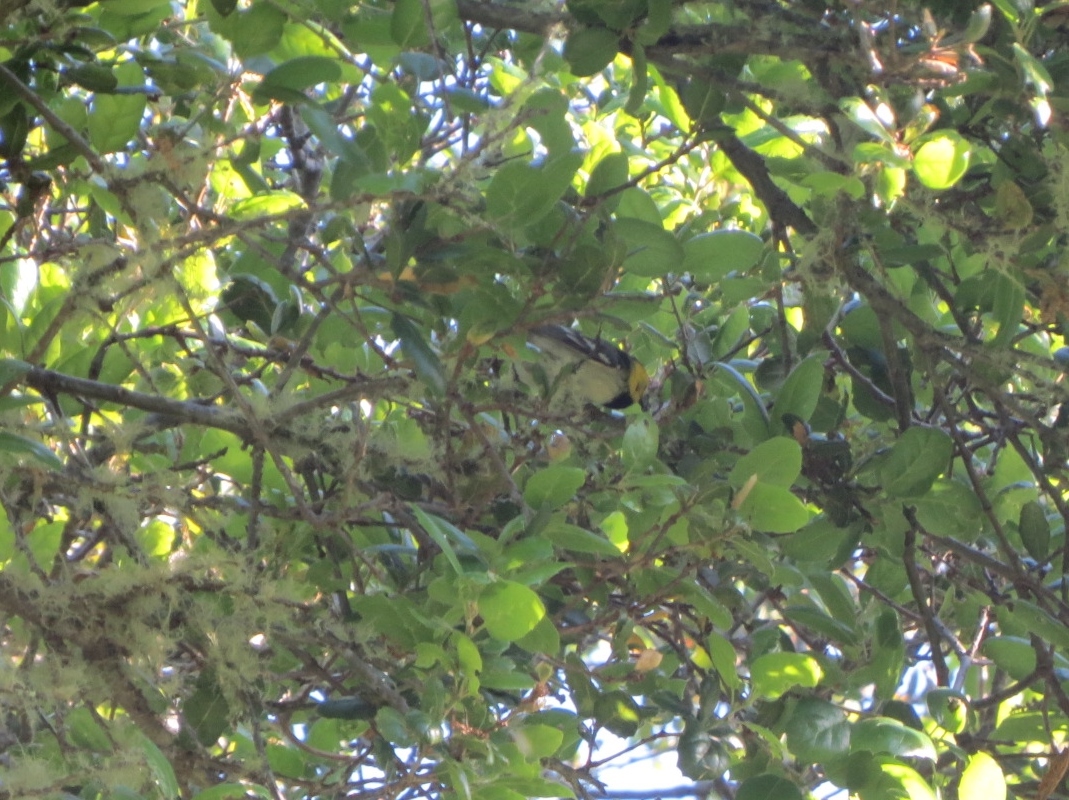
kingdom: Animalia
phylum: Chordata
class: Aves
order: Passeriformes
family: Parulidae
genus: Setophaga
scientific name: Setophaga occidentalis
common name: Hermit warbler
